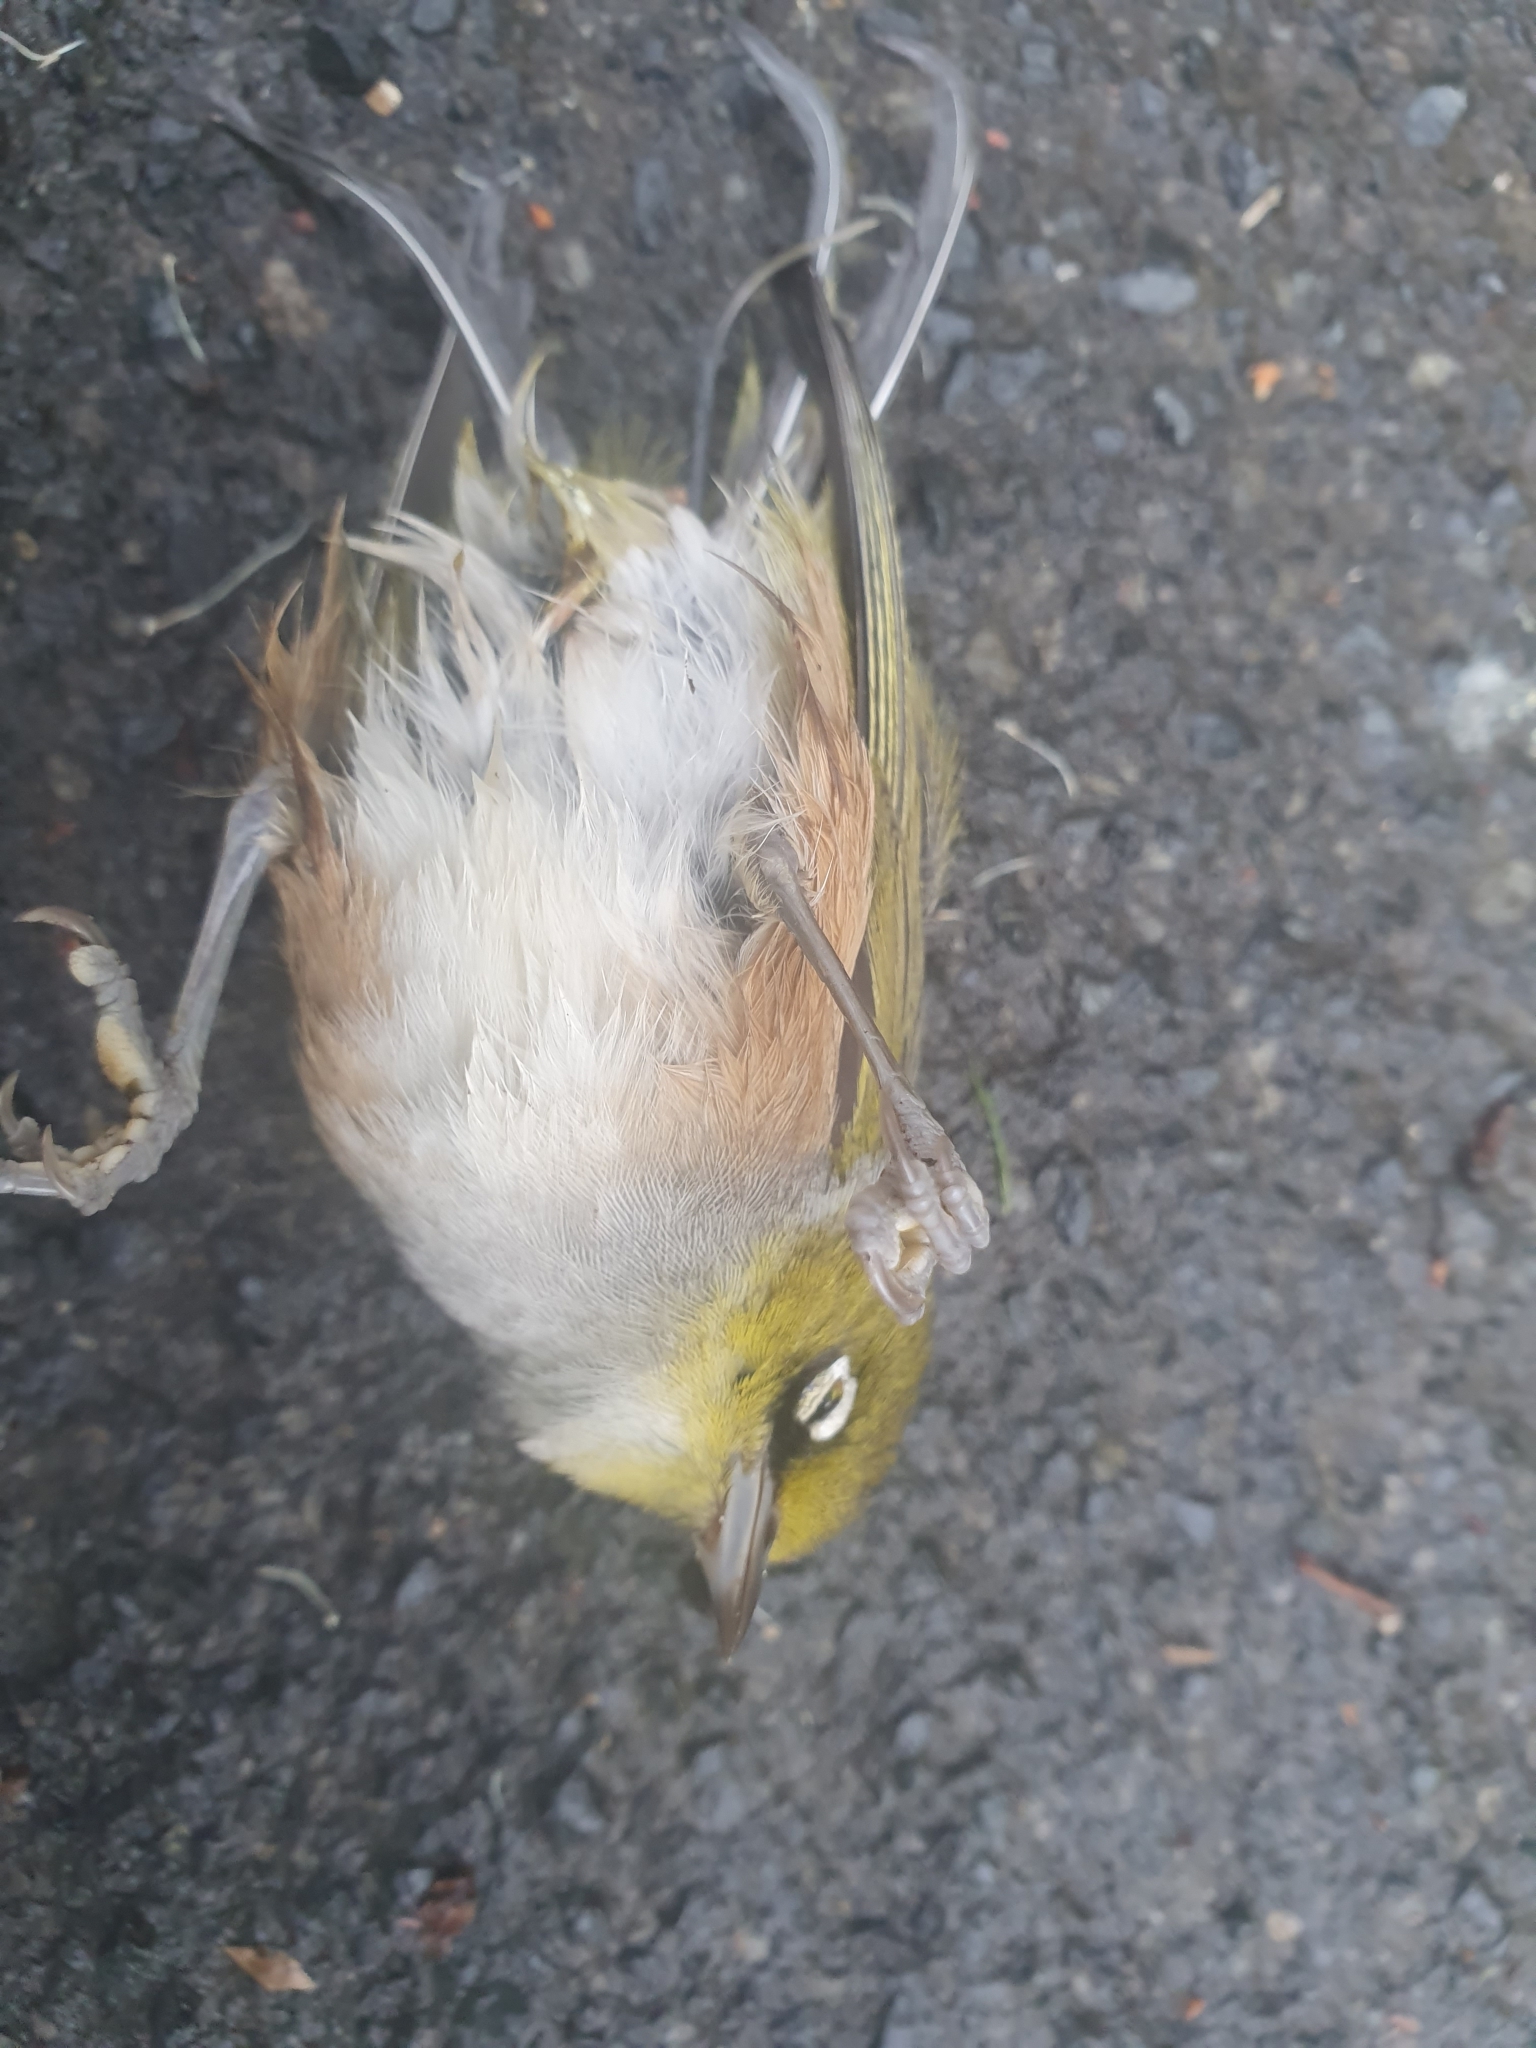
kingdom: Animalia
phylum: Chordata
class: Aves
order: Passeriformes
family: Zosteropidae
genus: Zosterops
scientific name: Zosterops lateralis
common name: Silvereye
